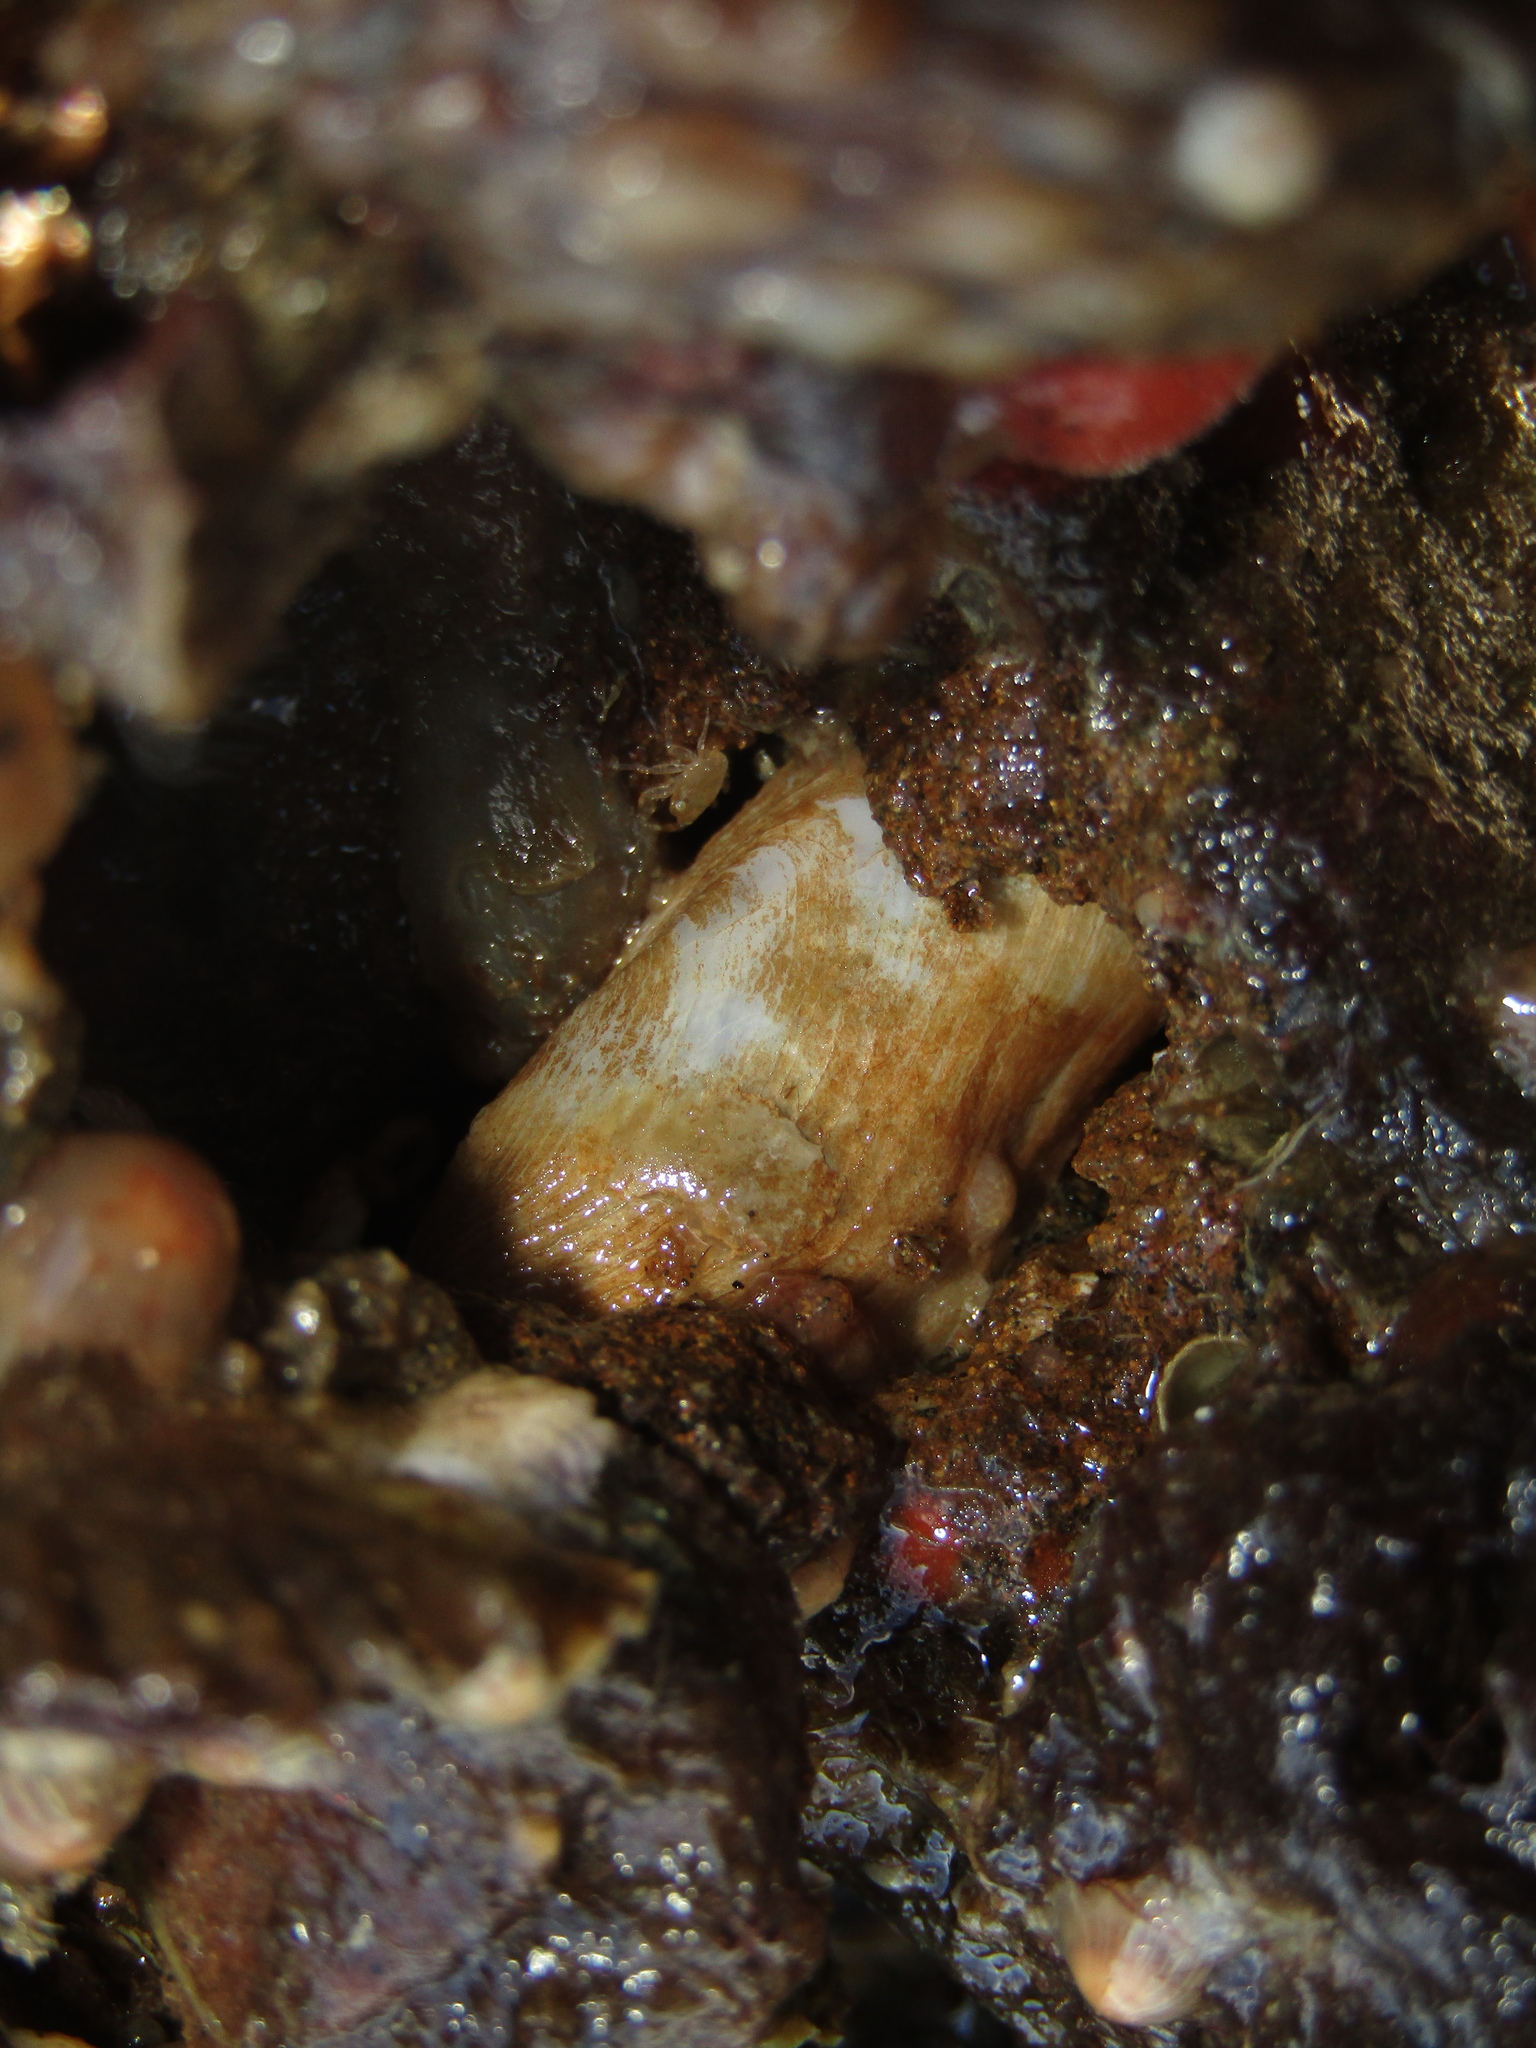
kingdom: Animalia
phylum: Mollusca
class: Bivalvia
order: Myida
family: Pholadidae
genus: Barnea
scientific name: Barnea similis
